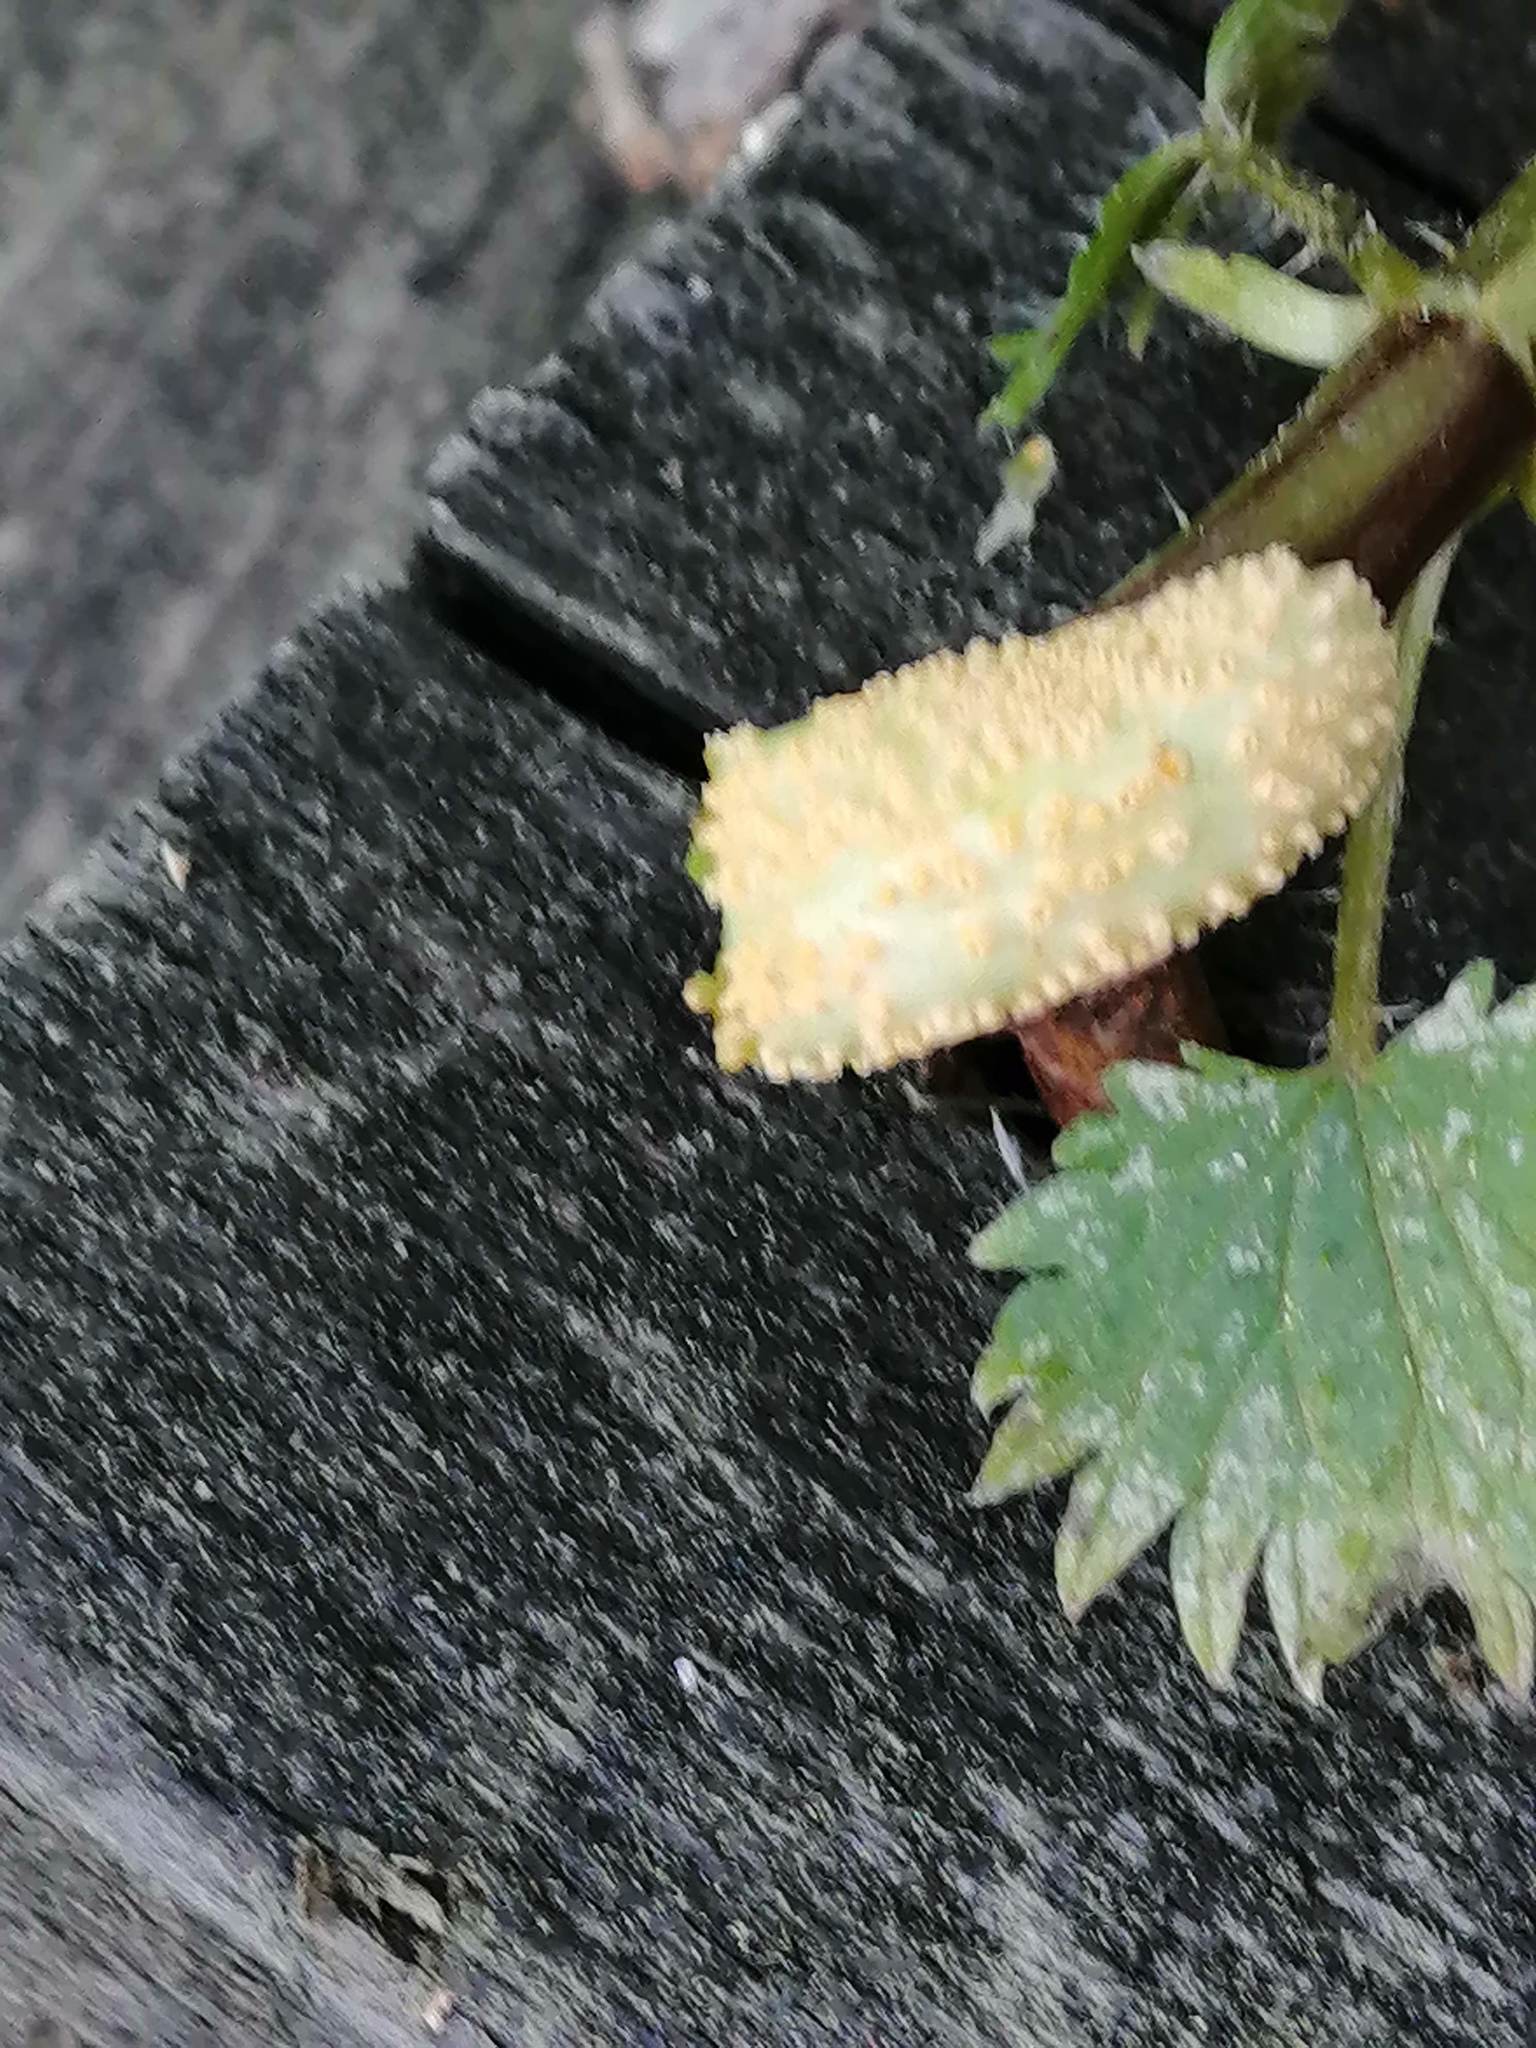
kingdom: Fungi
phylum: Basidiomycota
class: Pucciniomycetes
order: Pucciniales
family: Pucciniaceae
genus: Puccinia
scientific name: Puccinia urticata
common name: Nettle clustercup rust fungus
